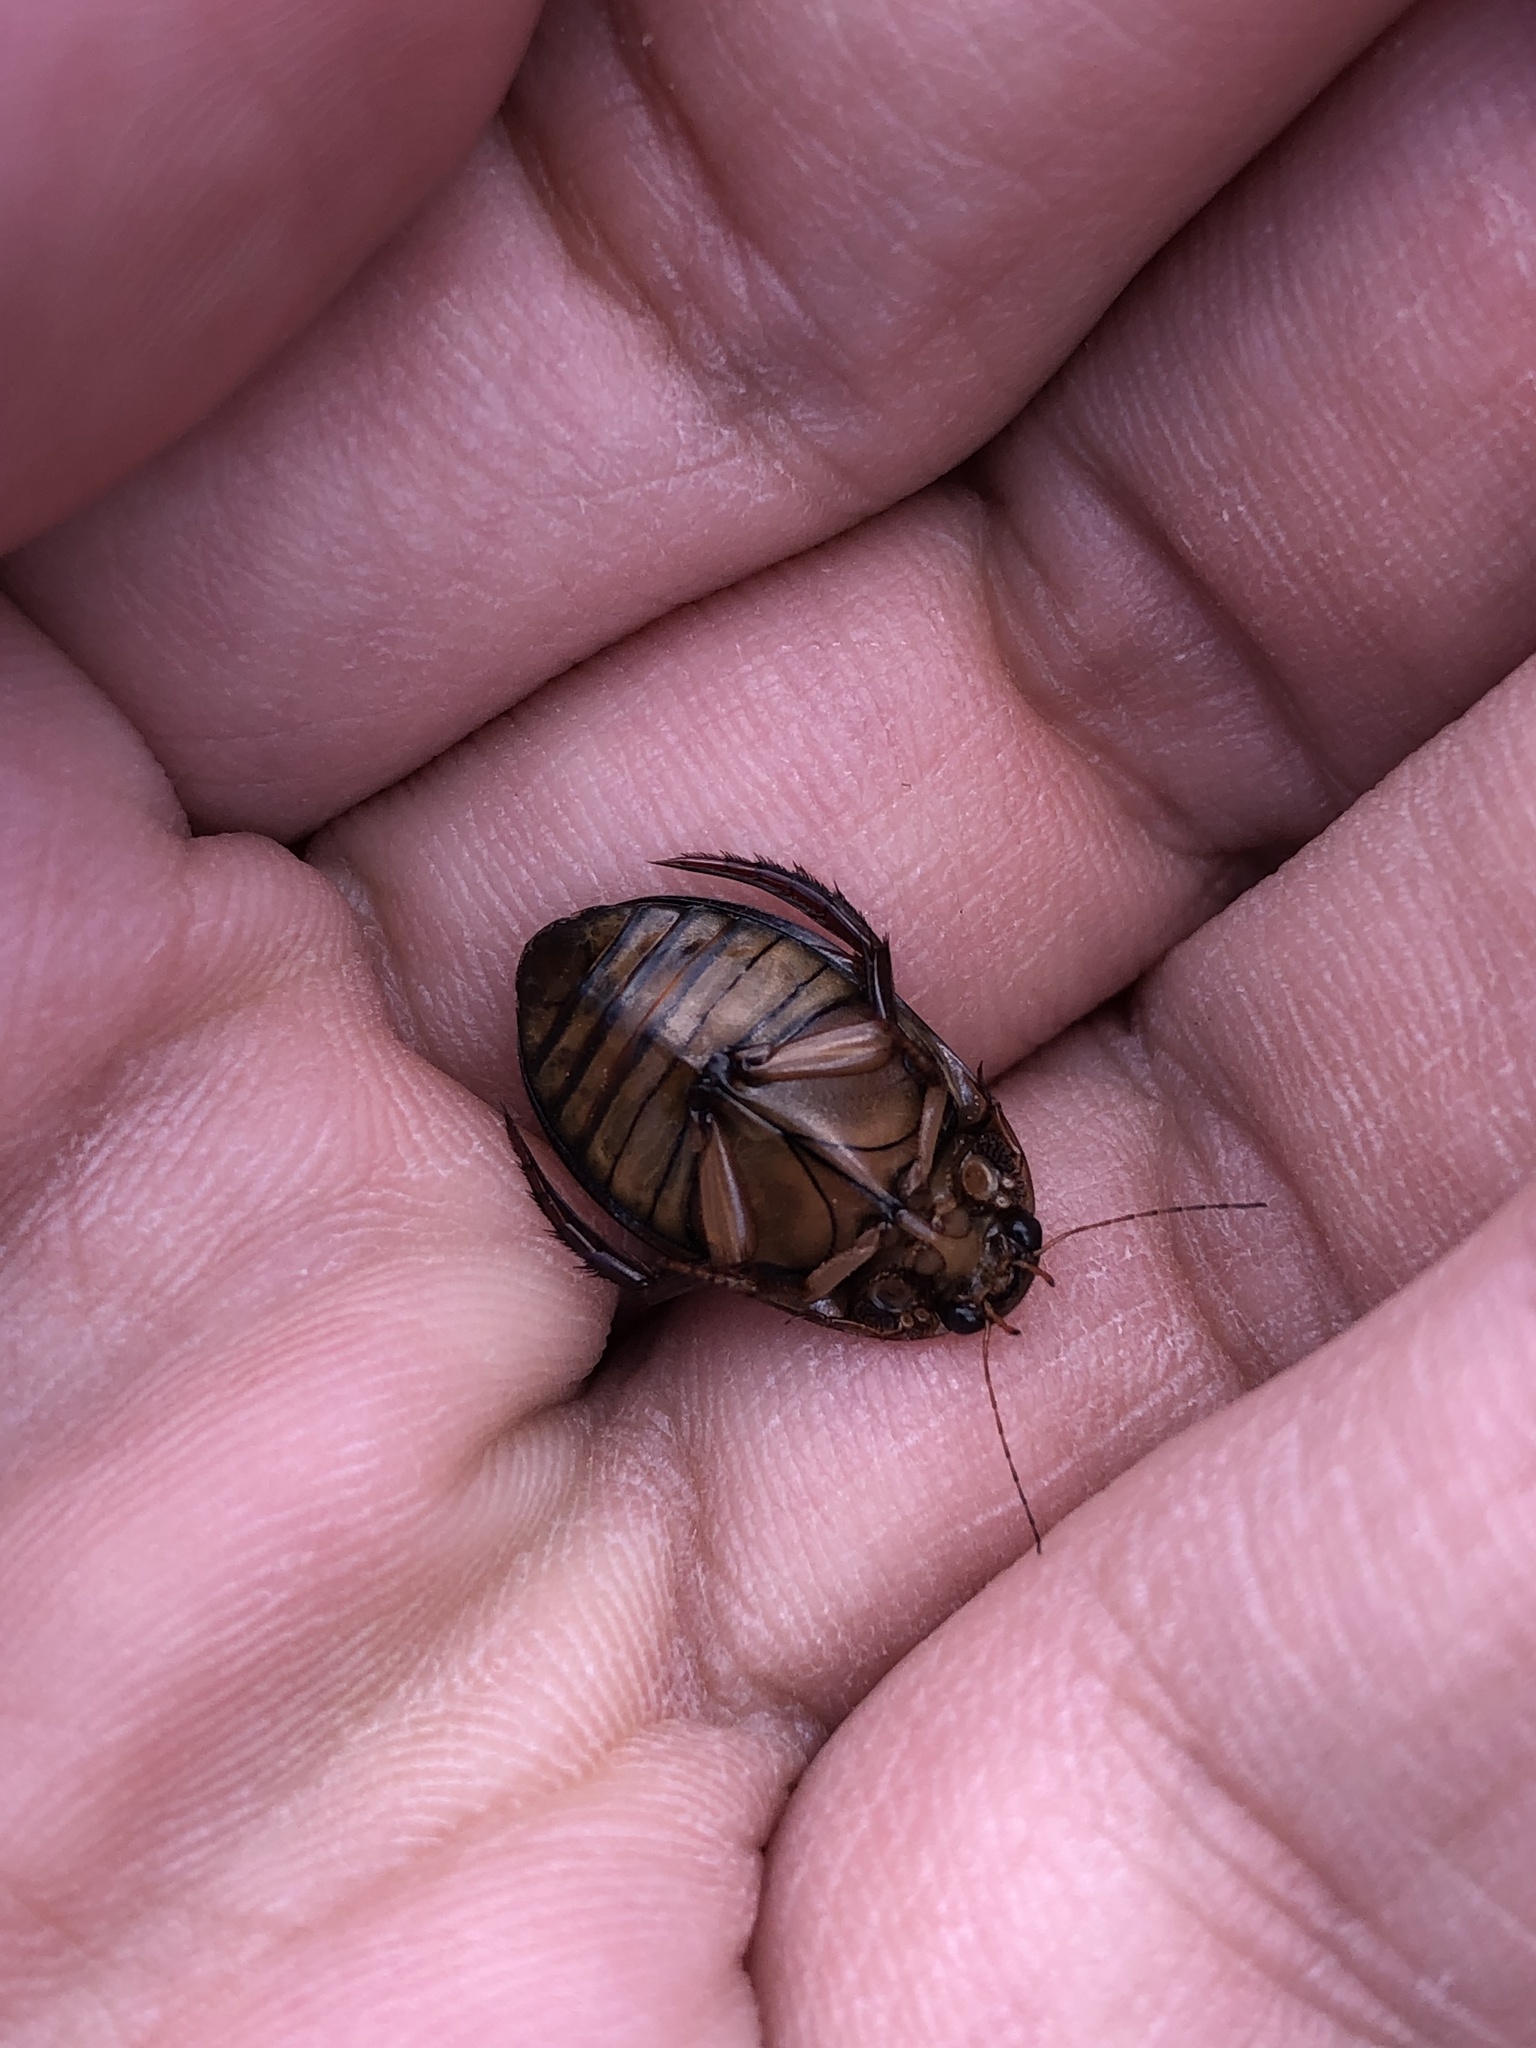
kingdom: Animalia
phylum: Arthropoda
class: Insecta
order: Coleoptera
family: Dytiscidae
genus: Acilius
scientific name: Acilius canaliculatus
